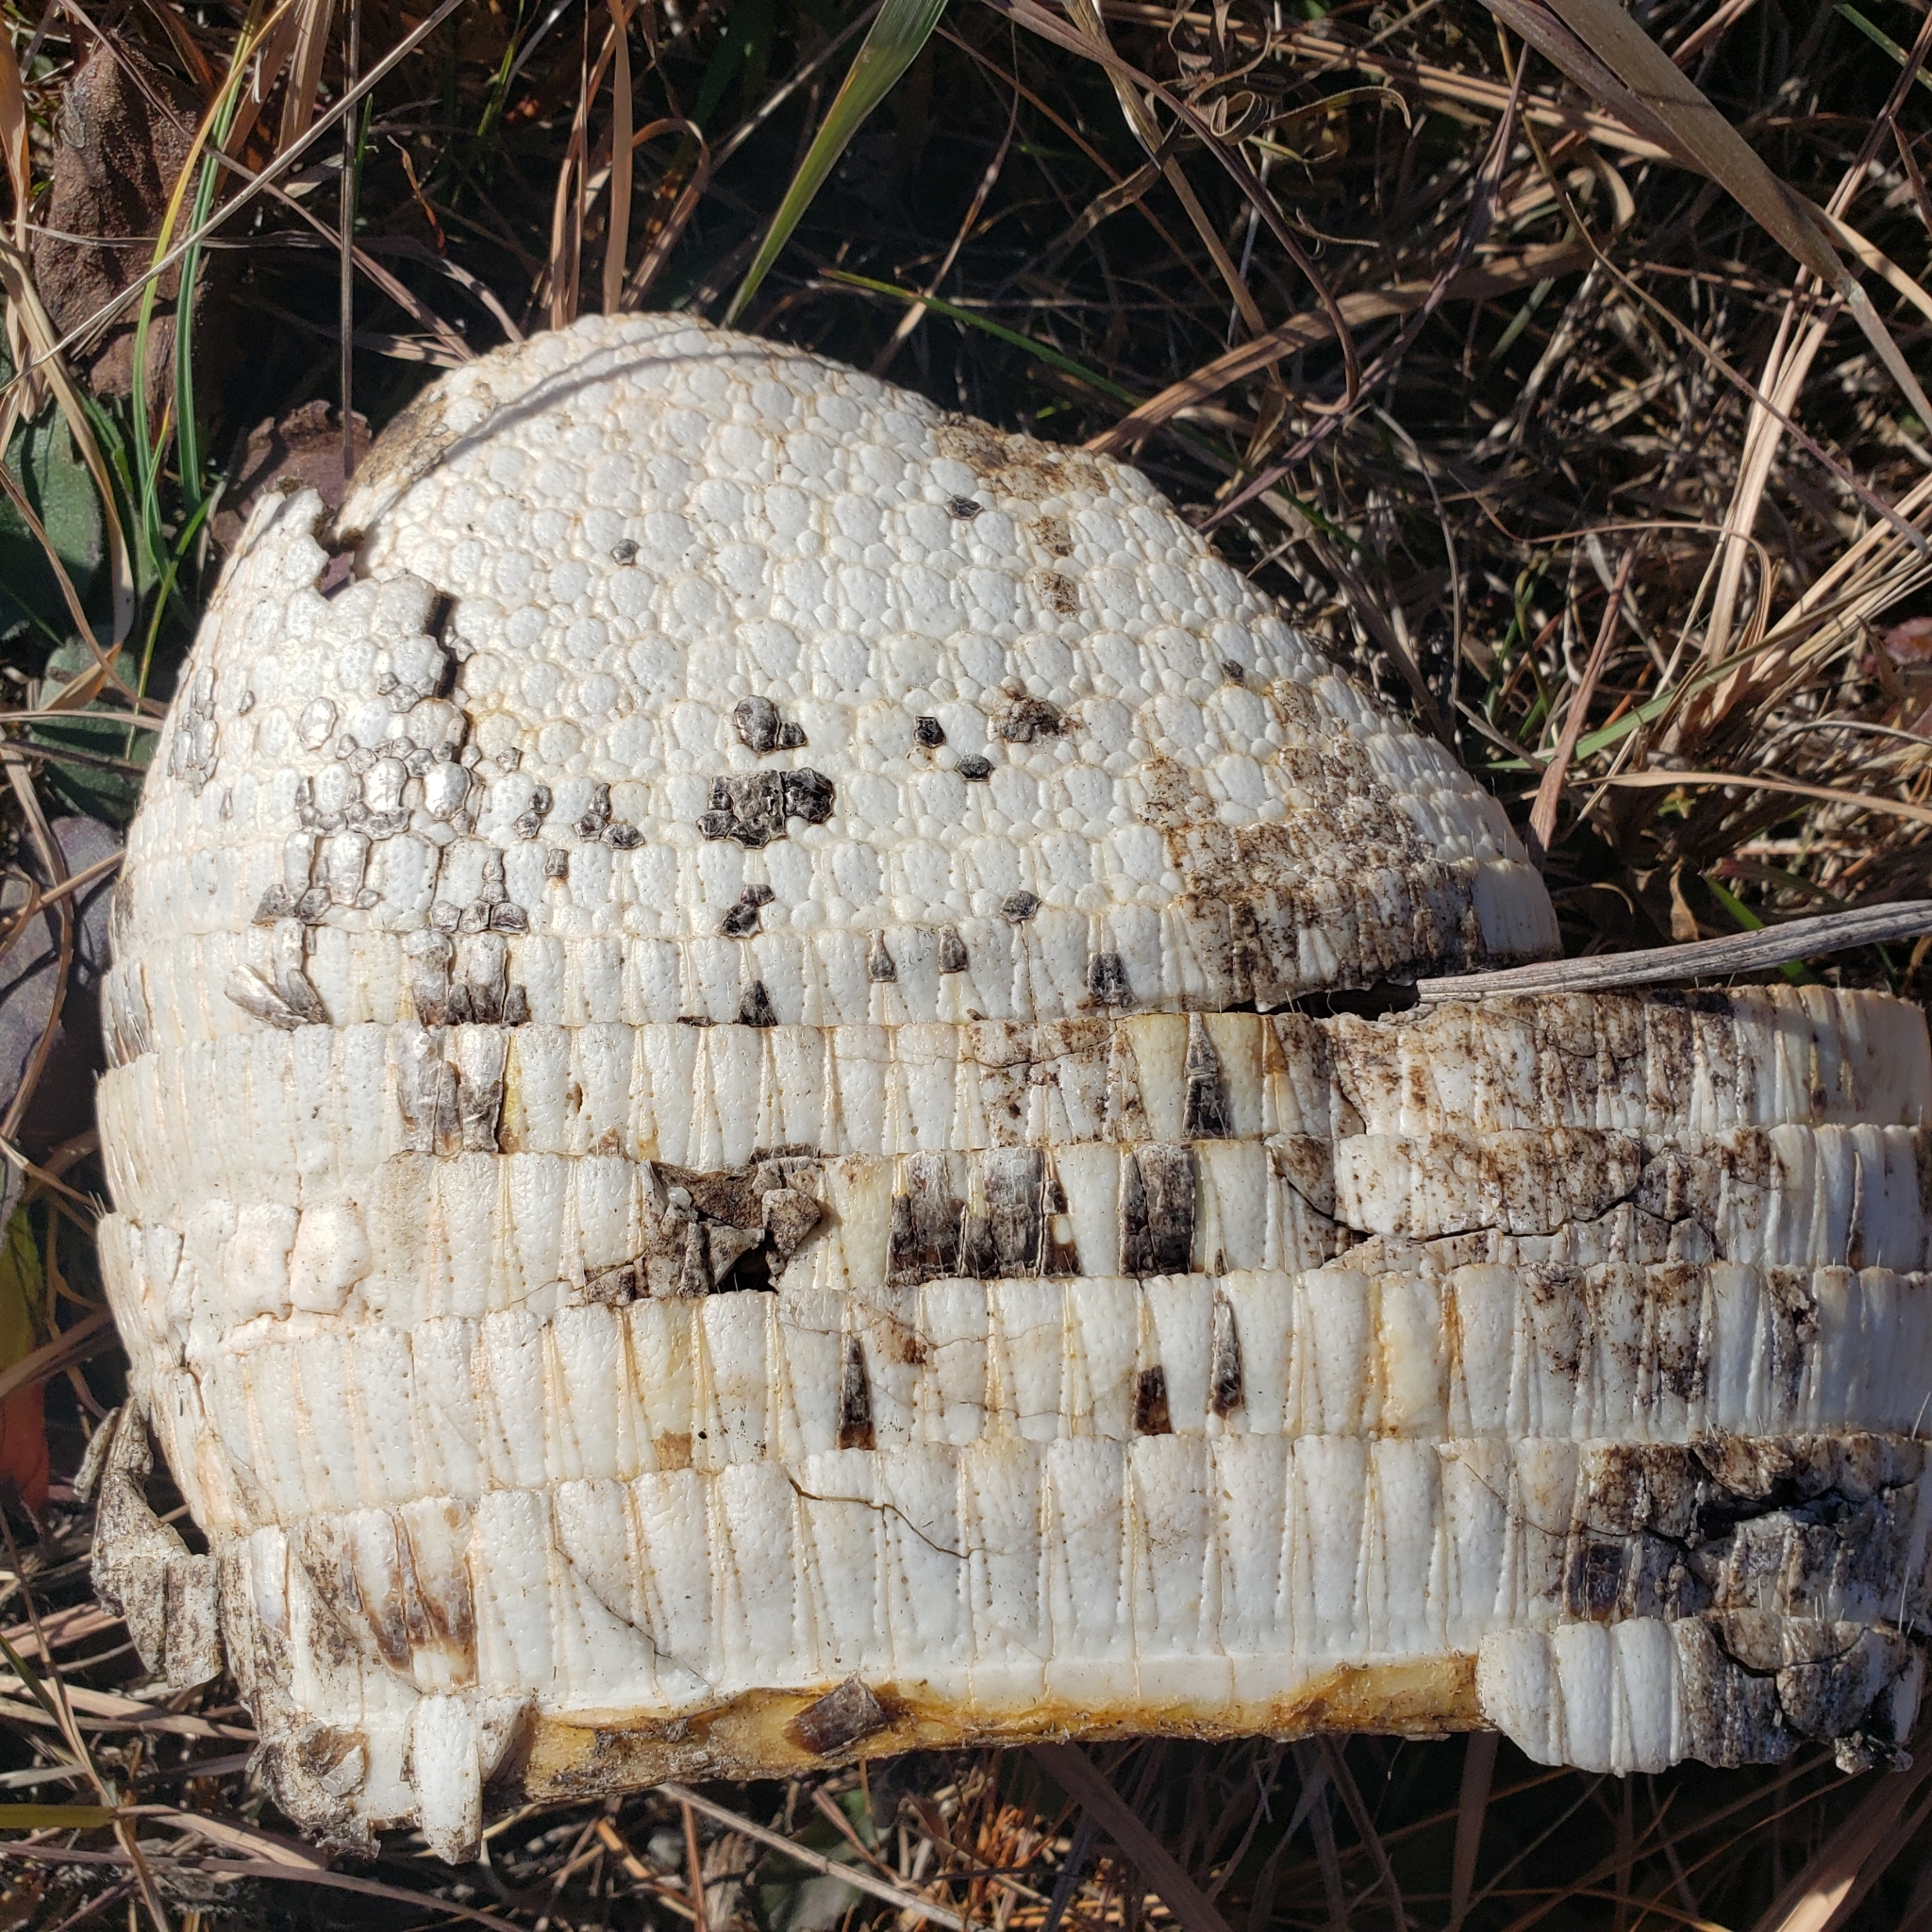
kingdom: Animalia
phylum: Chordata
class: Mammalia
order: Cingulata
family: Dasypodidae
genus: Dasypus
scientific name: Dasypus novemcinctus
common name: Nine-banded armadillo
